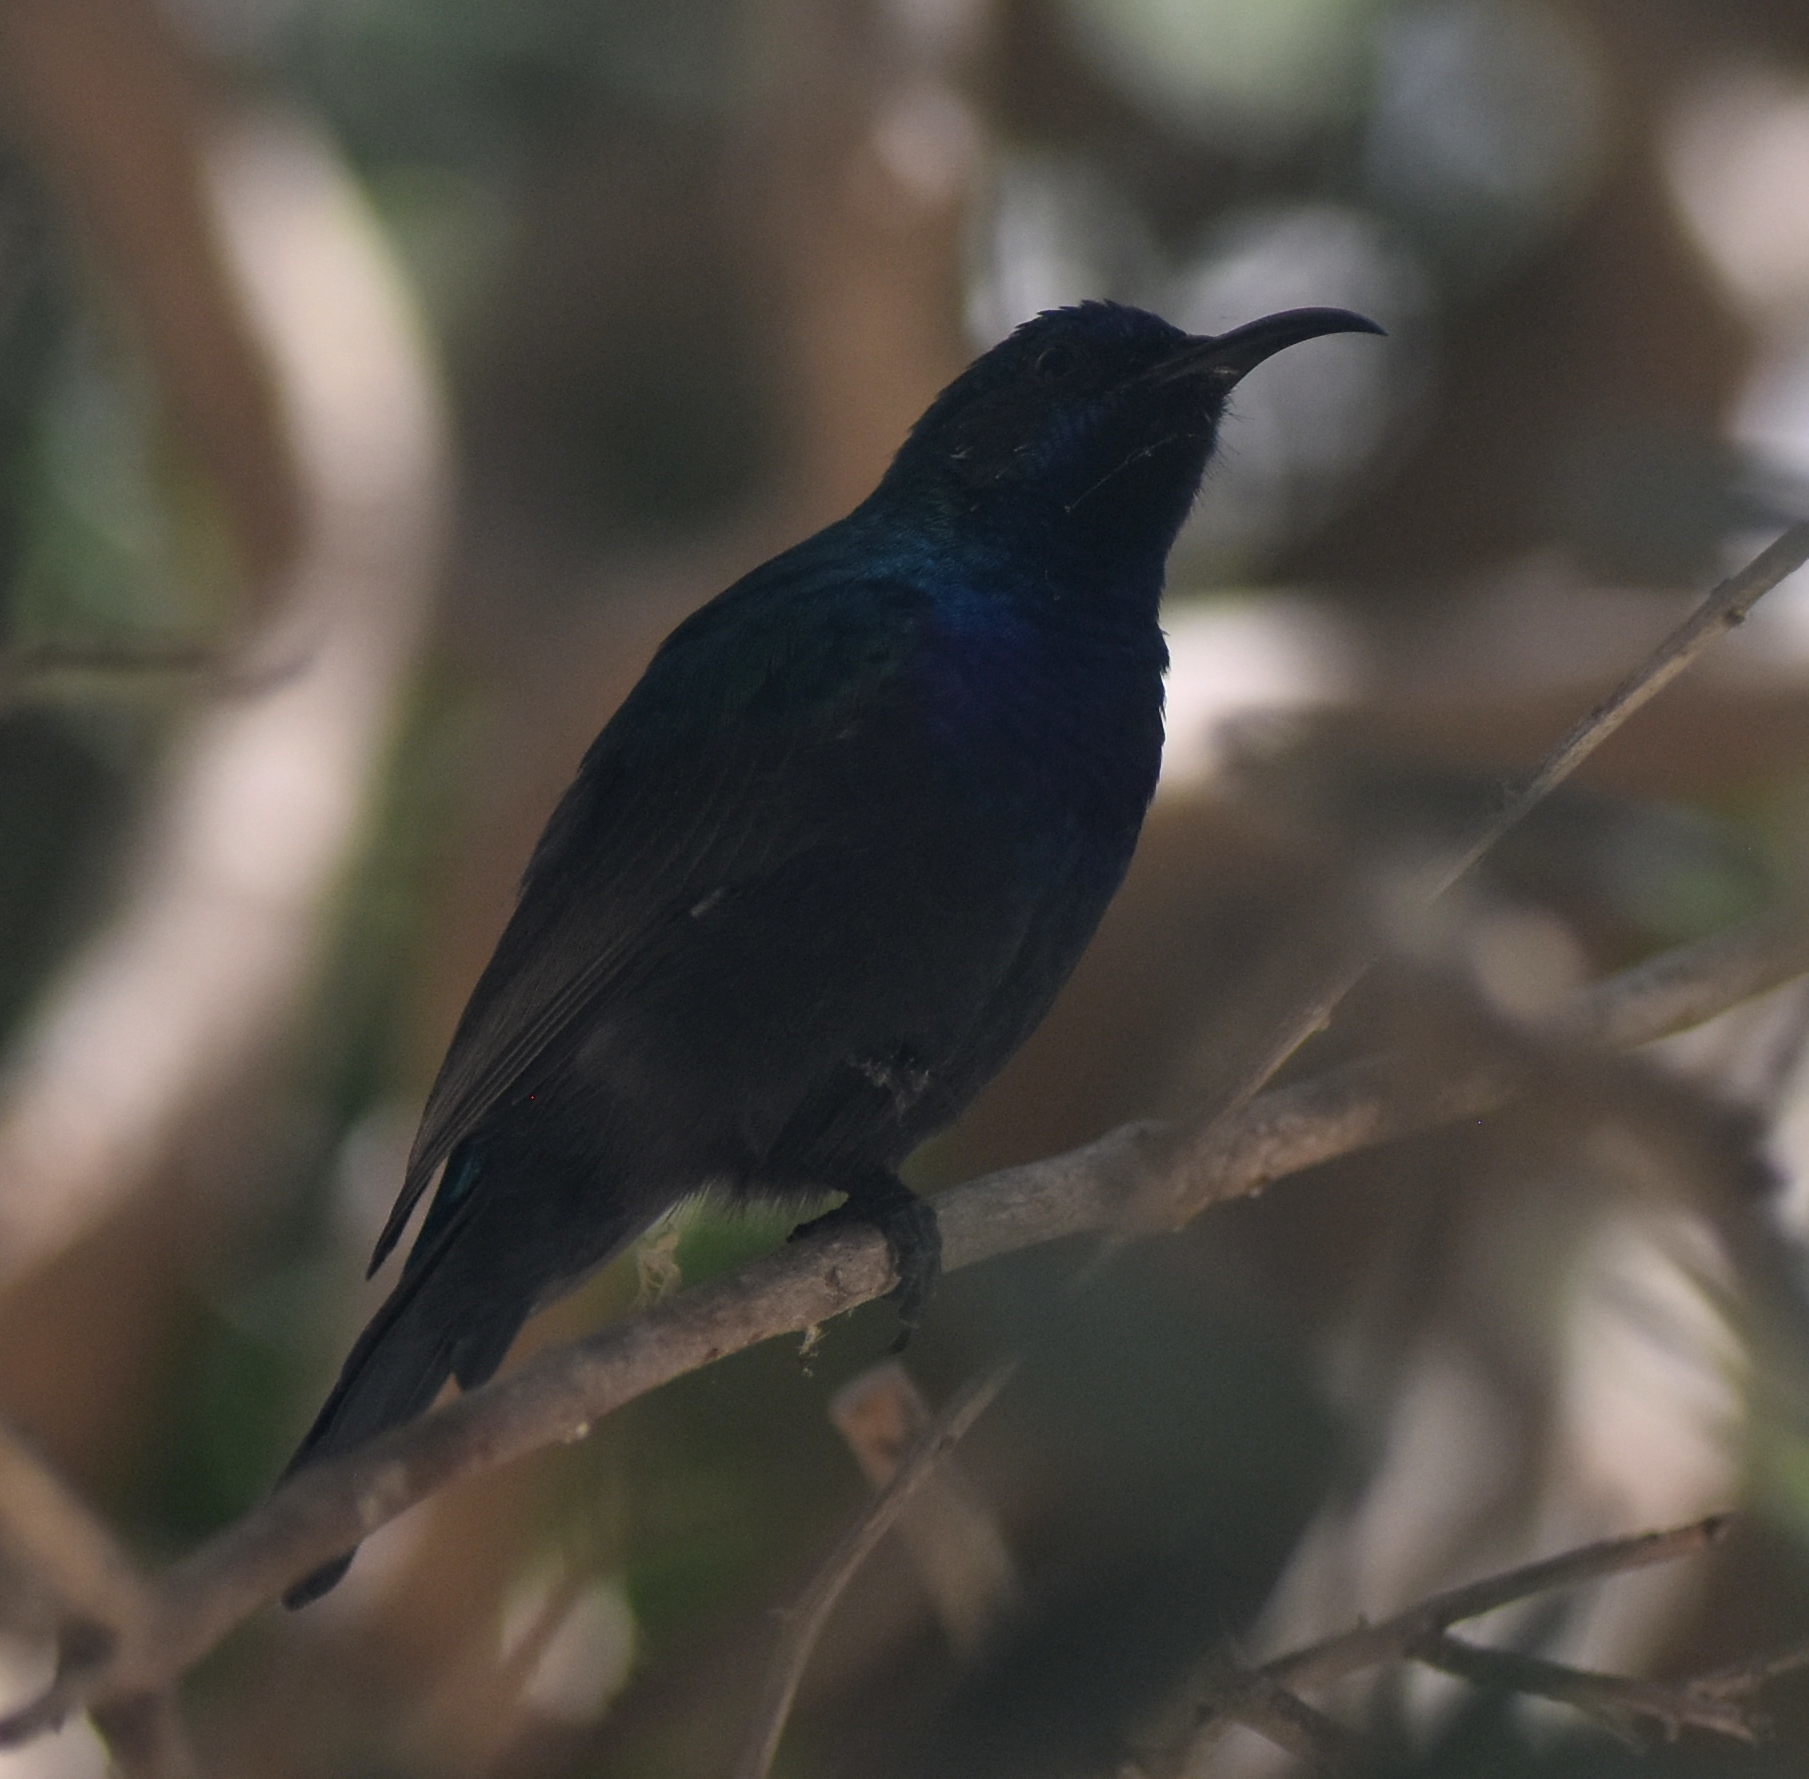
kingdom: Animalia
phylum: Chordata
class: Aves
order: Passeriformes
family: Nectariniidae
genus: Cinnyris
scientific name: Cinnyris osea
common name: Palestine sunbird
